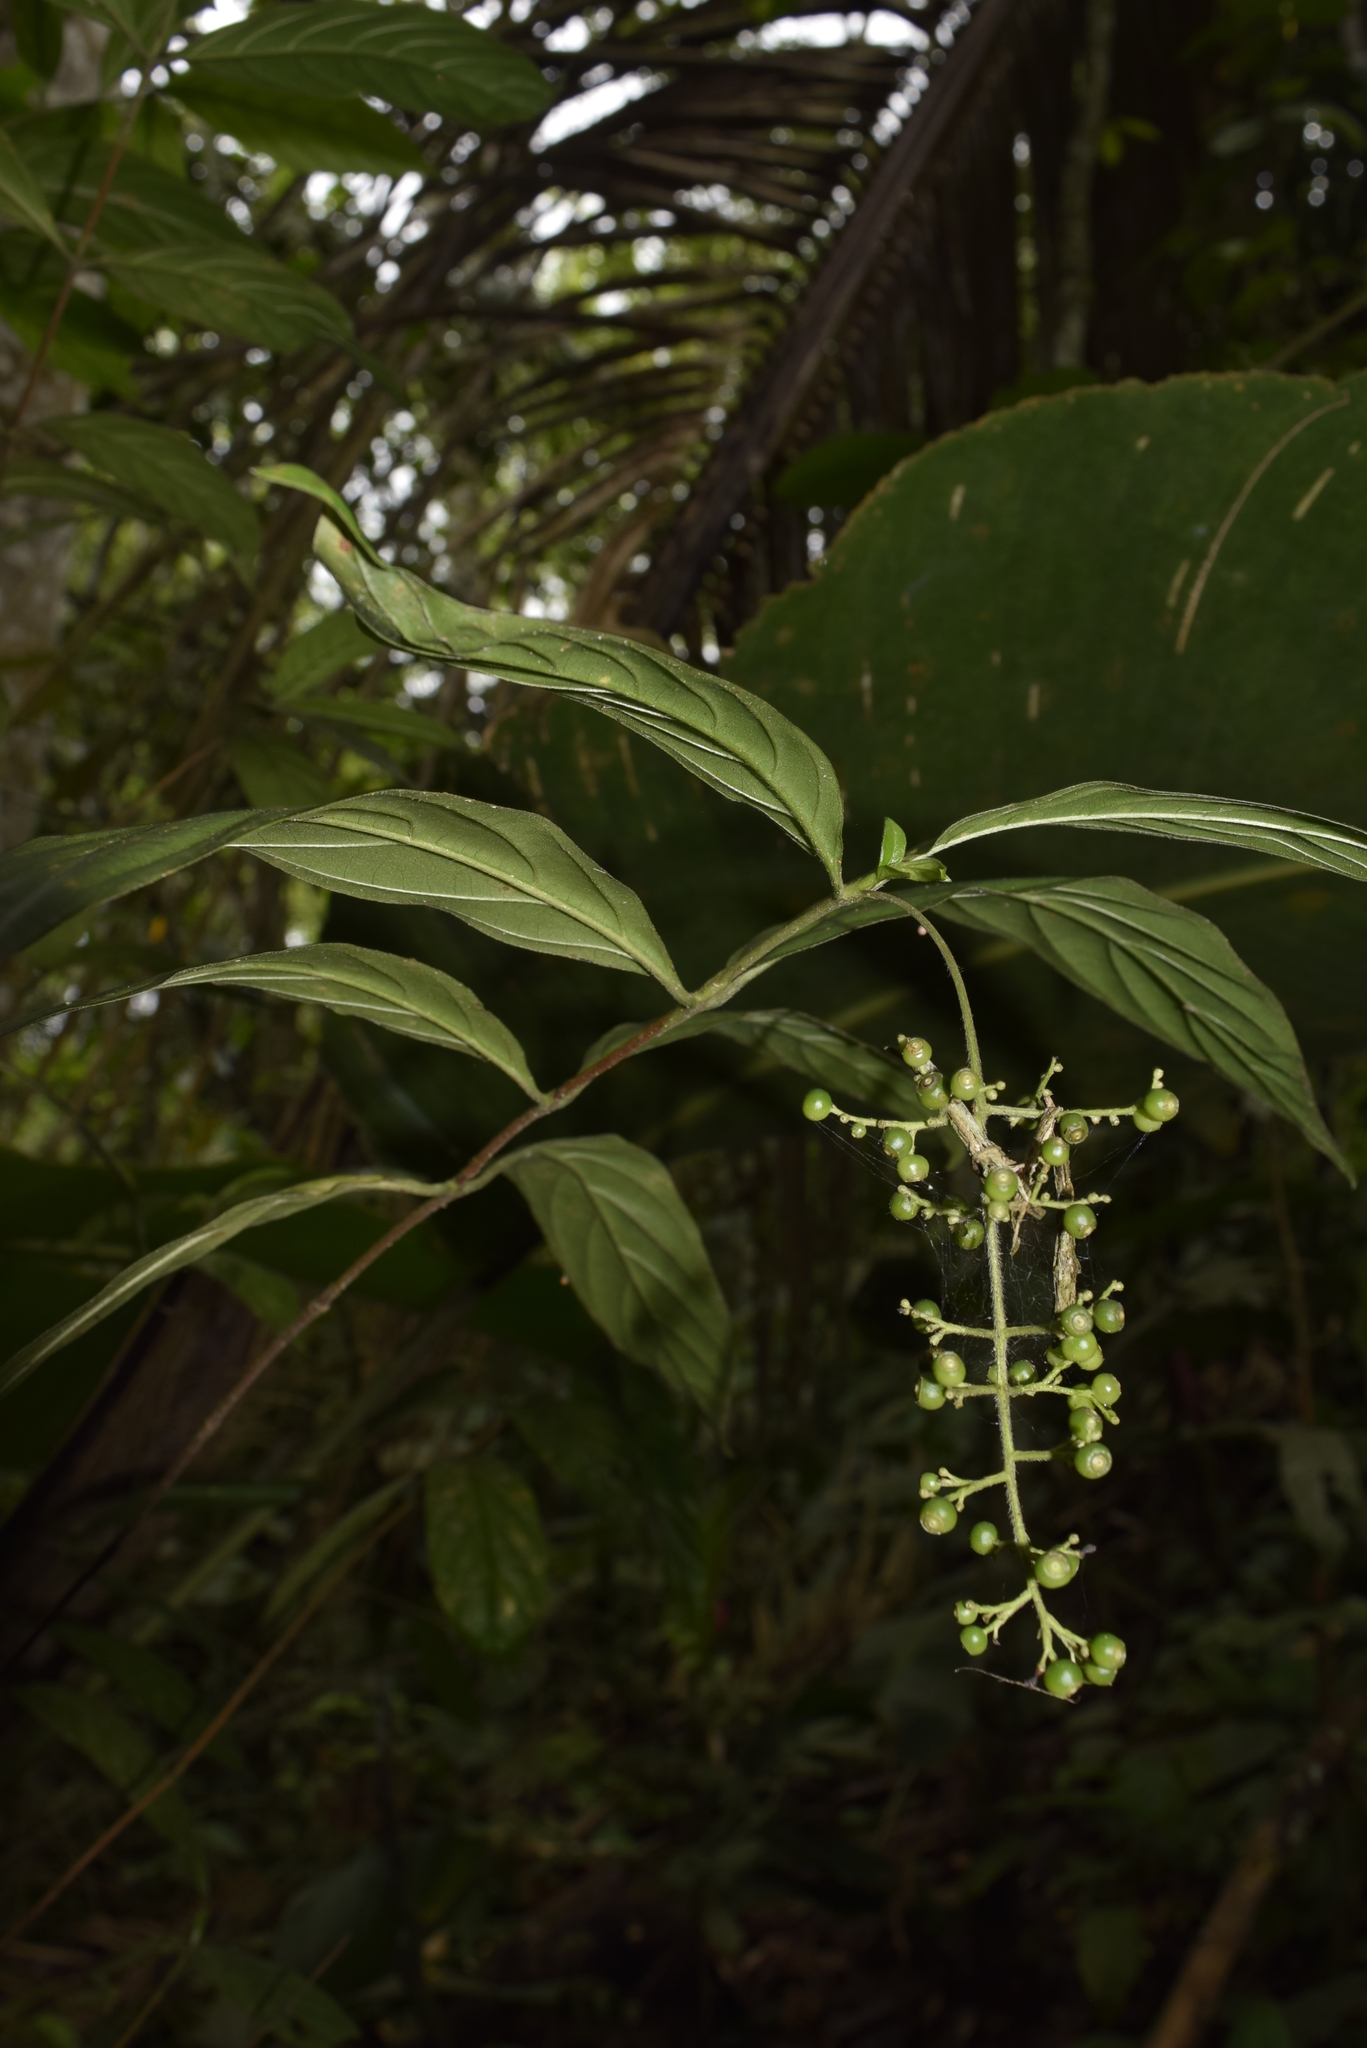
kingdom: Plantae
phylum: Tracheophyta
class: Magnoliopsida
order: Gentianales
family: Rubiaceae
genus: Bertiera
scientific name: Bertiera procumbens
